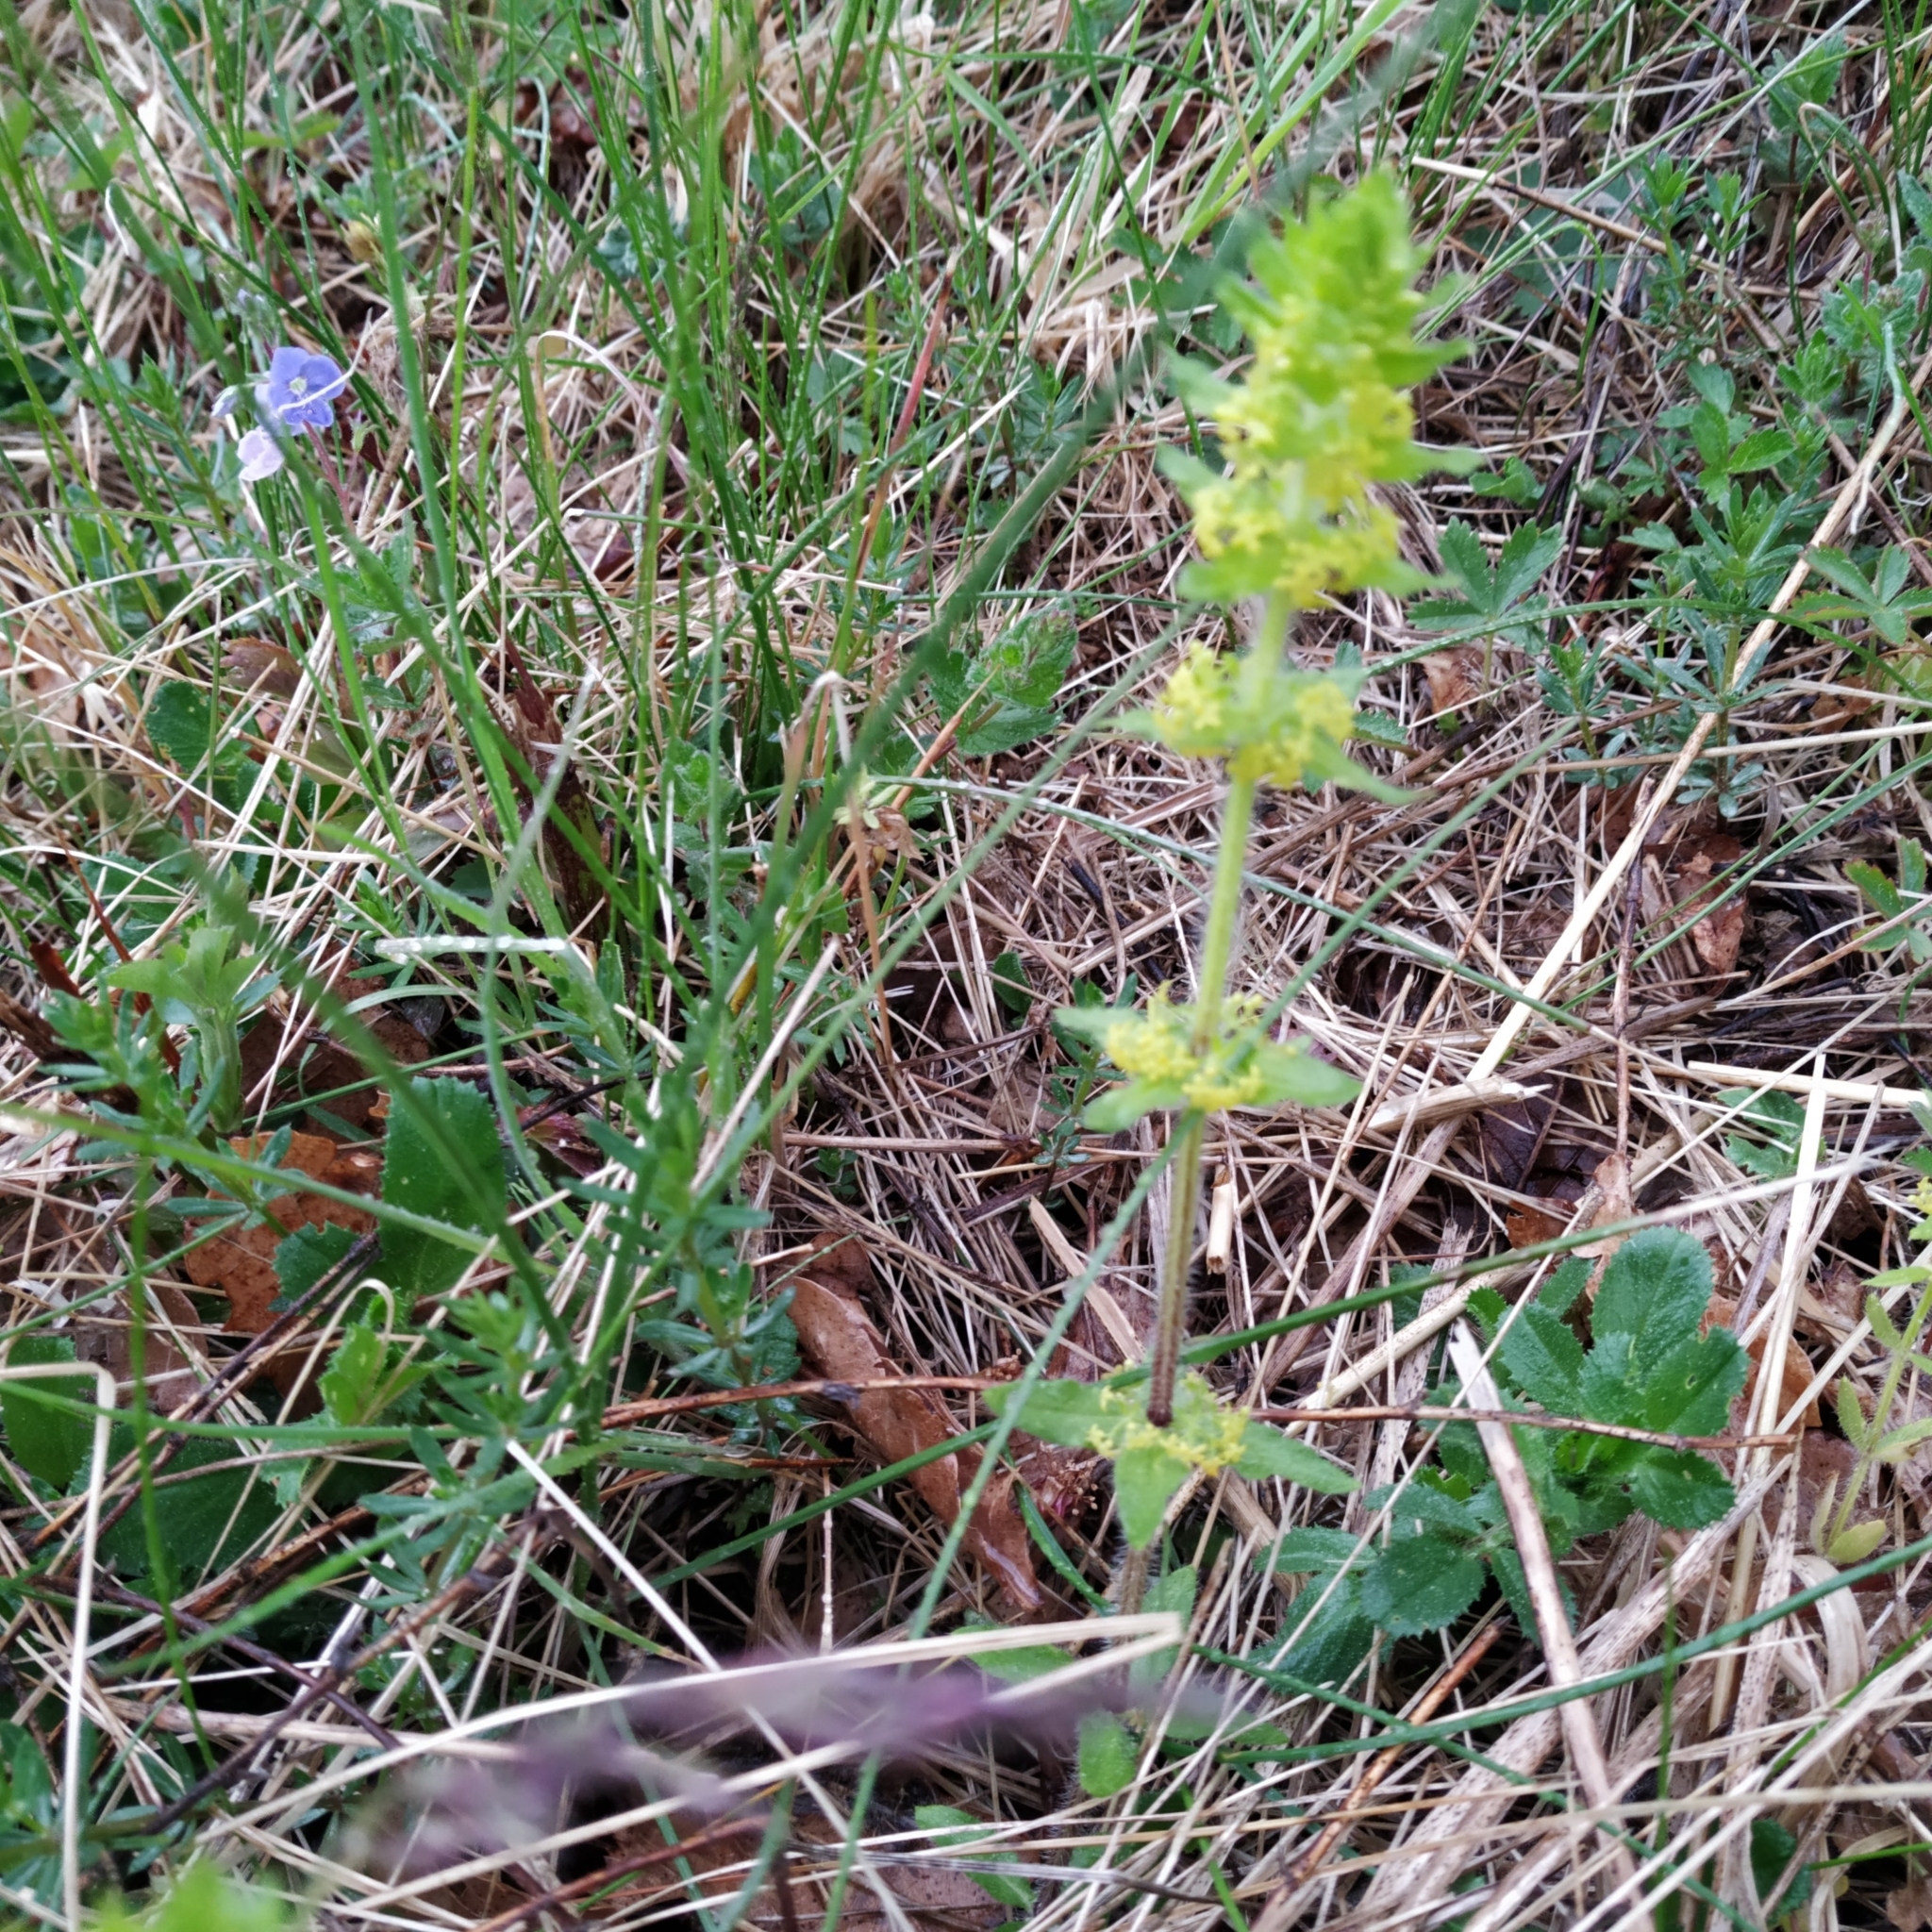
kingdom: Plantae
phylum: Tracheophyta
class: Magnoliopsida
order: Gentianales
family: Rubiaceae
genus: Cruciata
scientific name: Cruciata laevipes
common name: Crosswort
